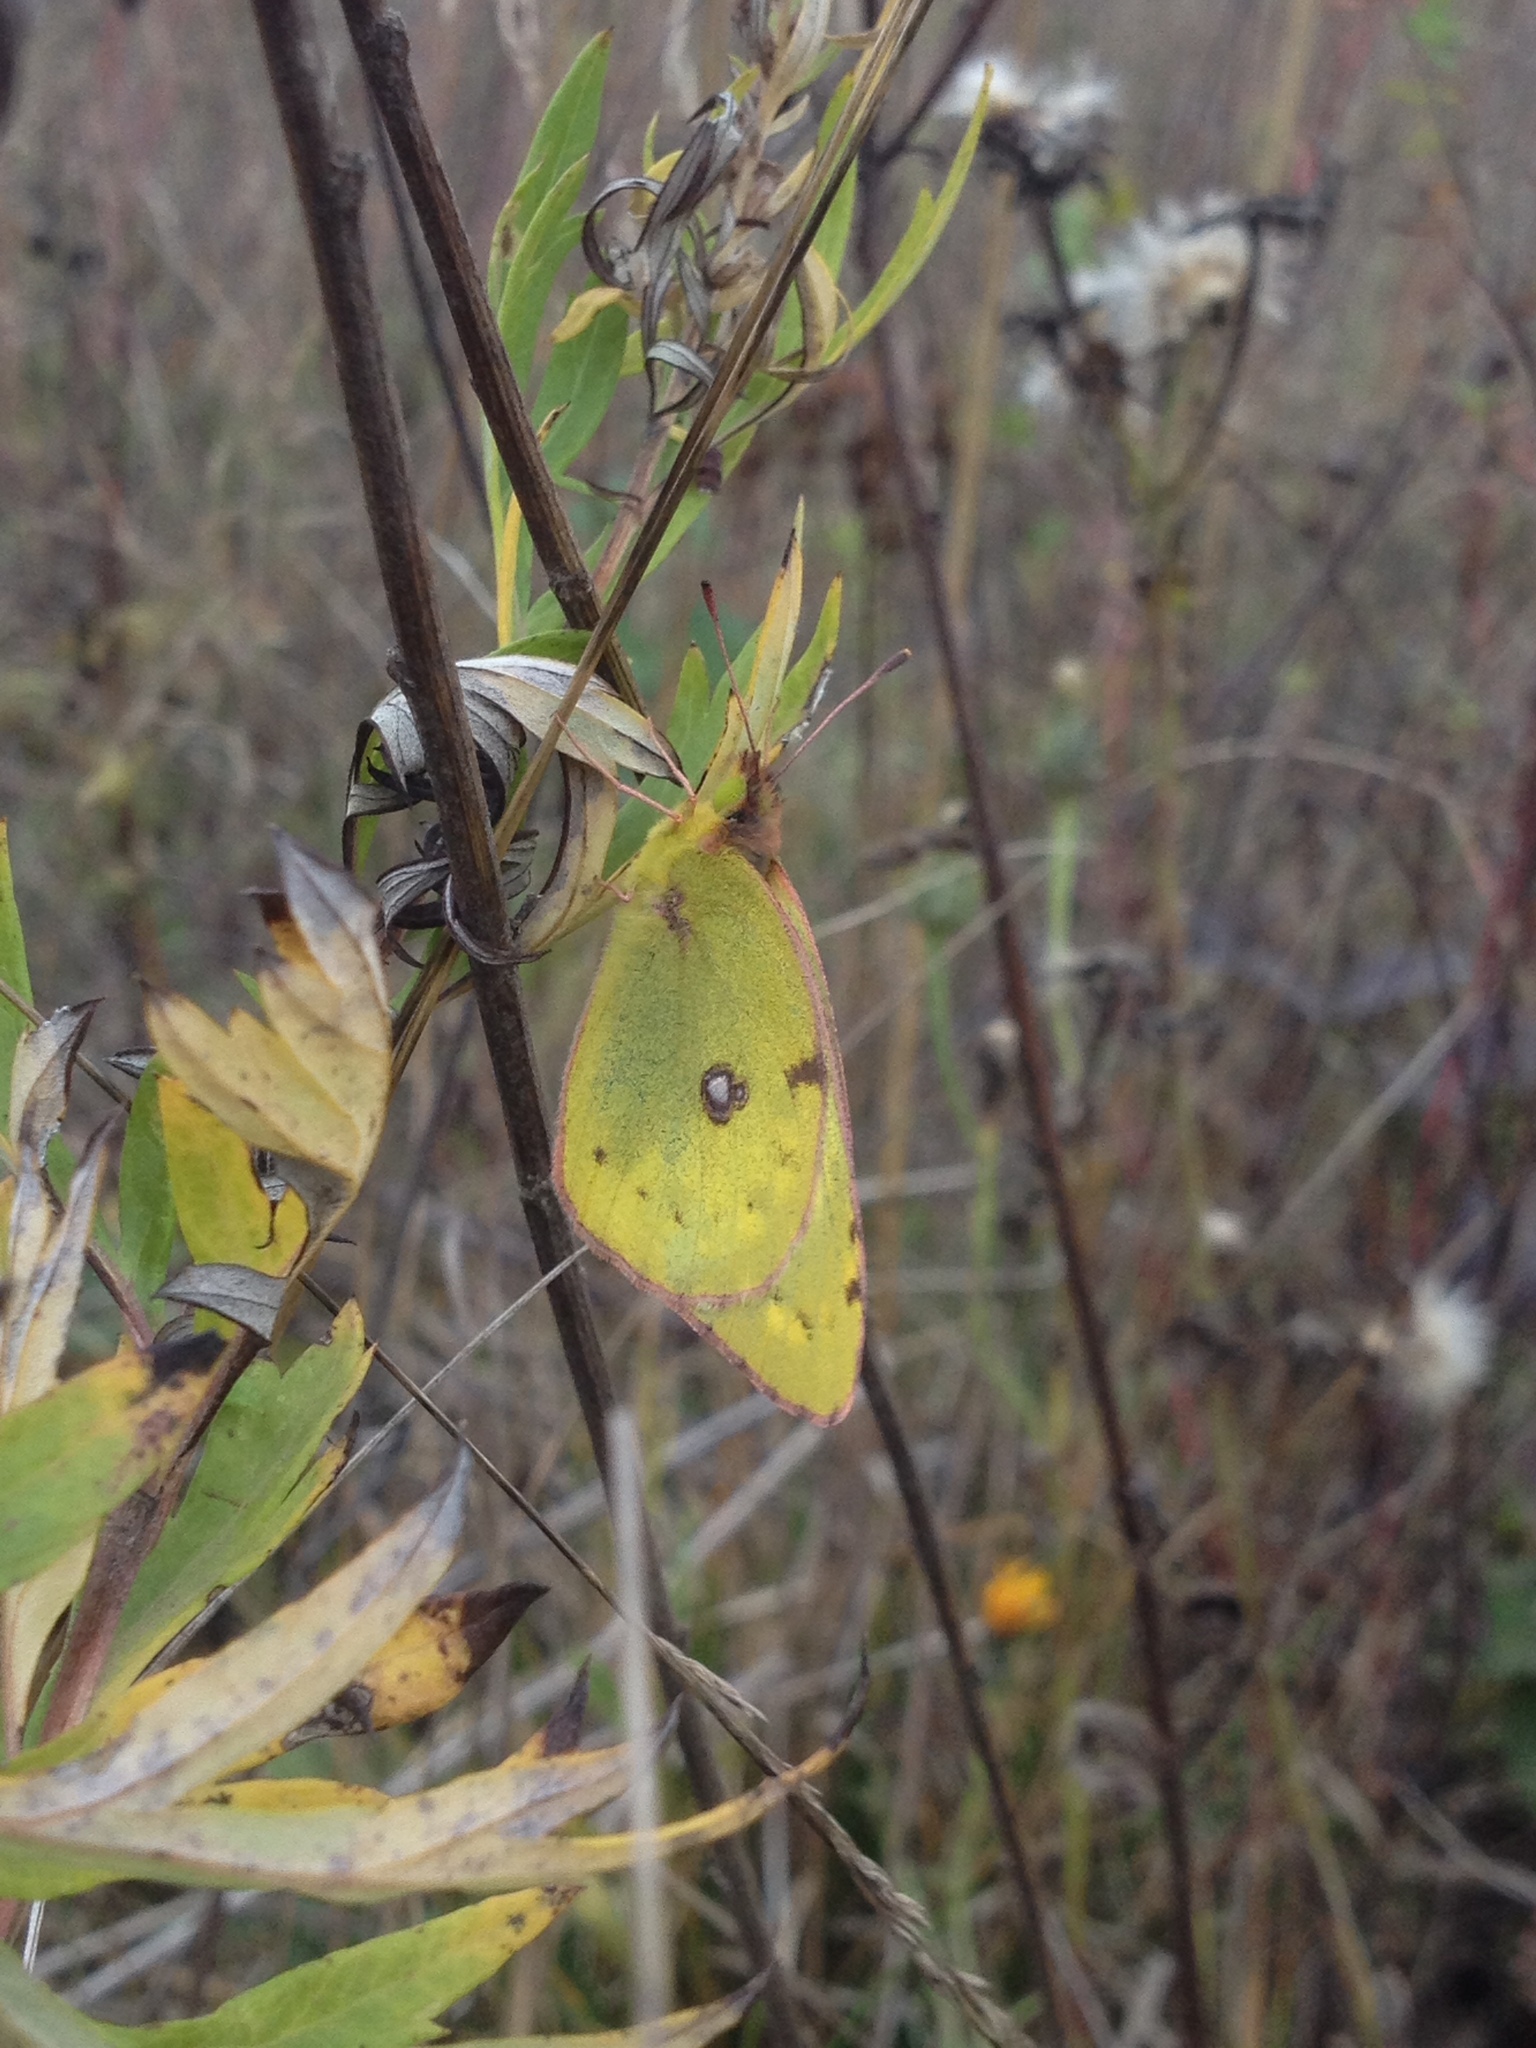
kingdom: Animalia
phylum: Arthropoda
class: Insecta
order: Lepidoptera
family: Pieridae
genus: Colias
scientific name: Colias hyale
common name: Pale clouded yellow
